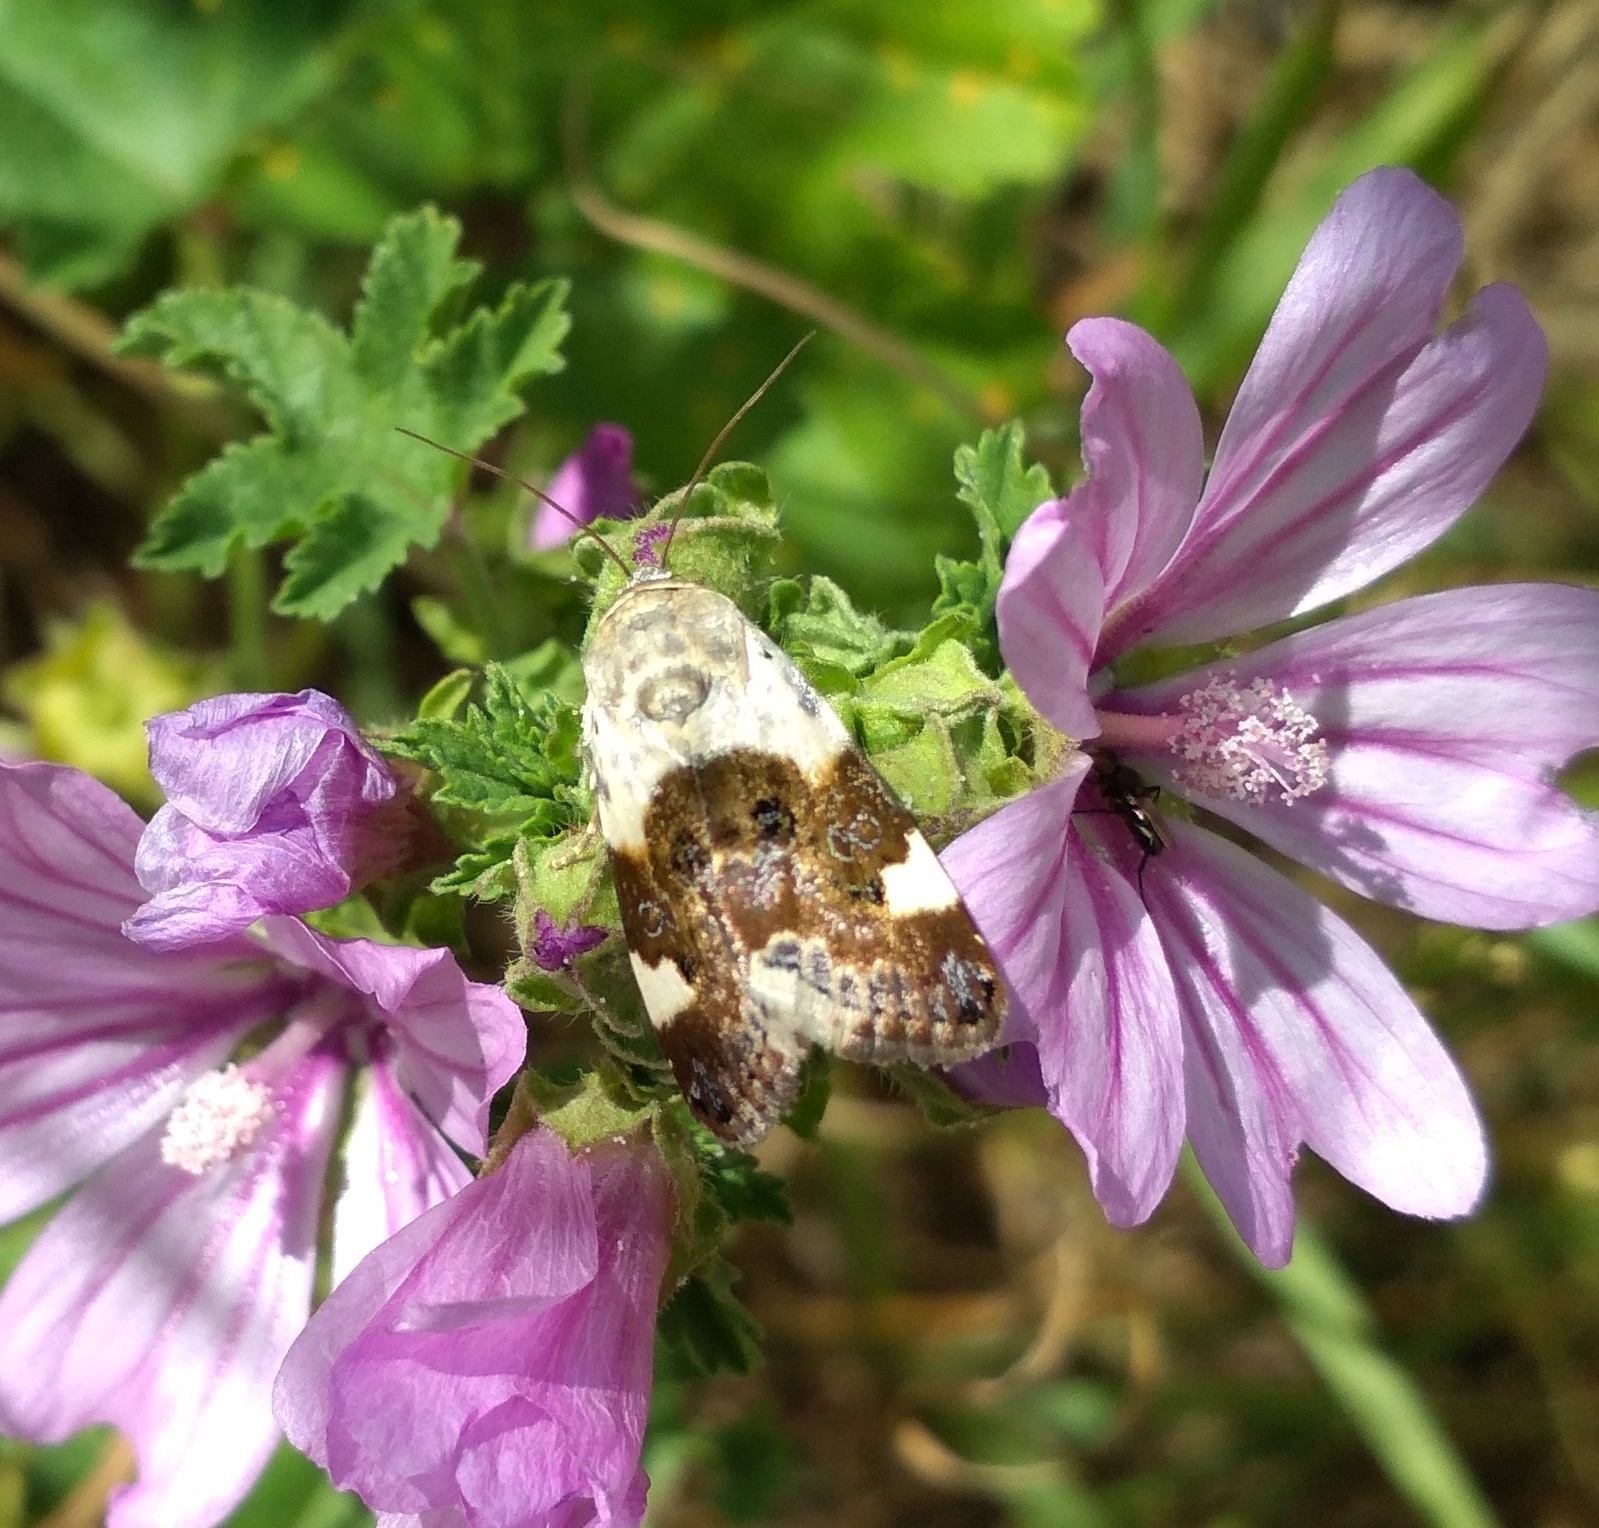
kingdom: Animalia
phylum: Arthropoda
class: Insecta
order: Lepidoptera
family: Noctuidae
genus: Acontia
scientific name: Acontia lucida
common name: Pale shoulder
